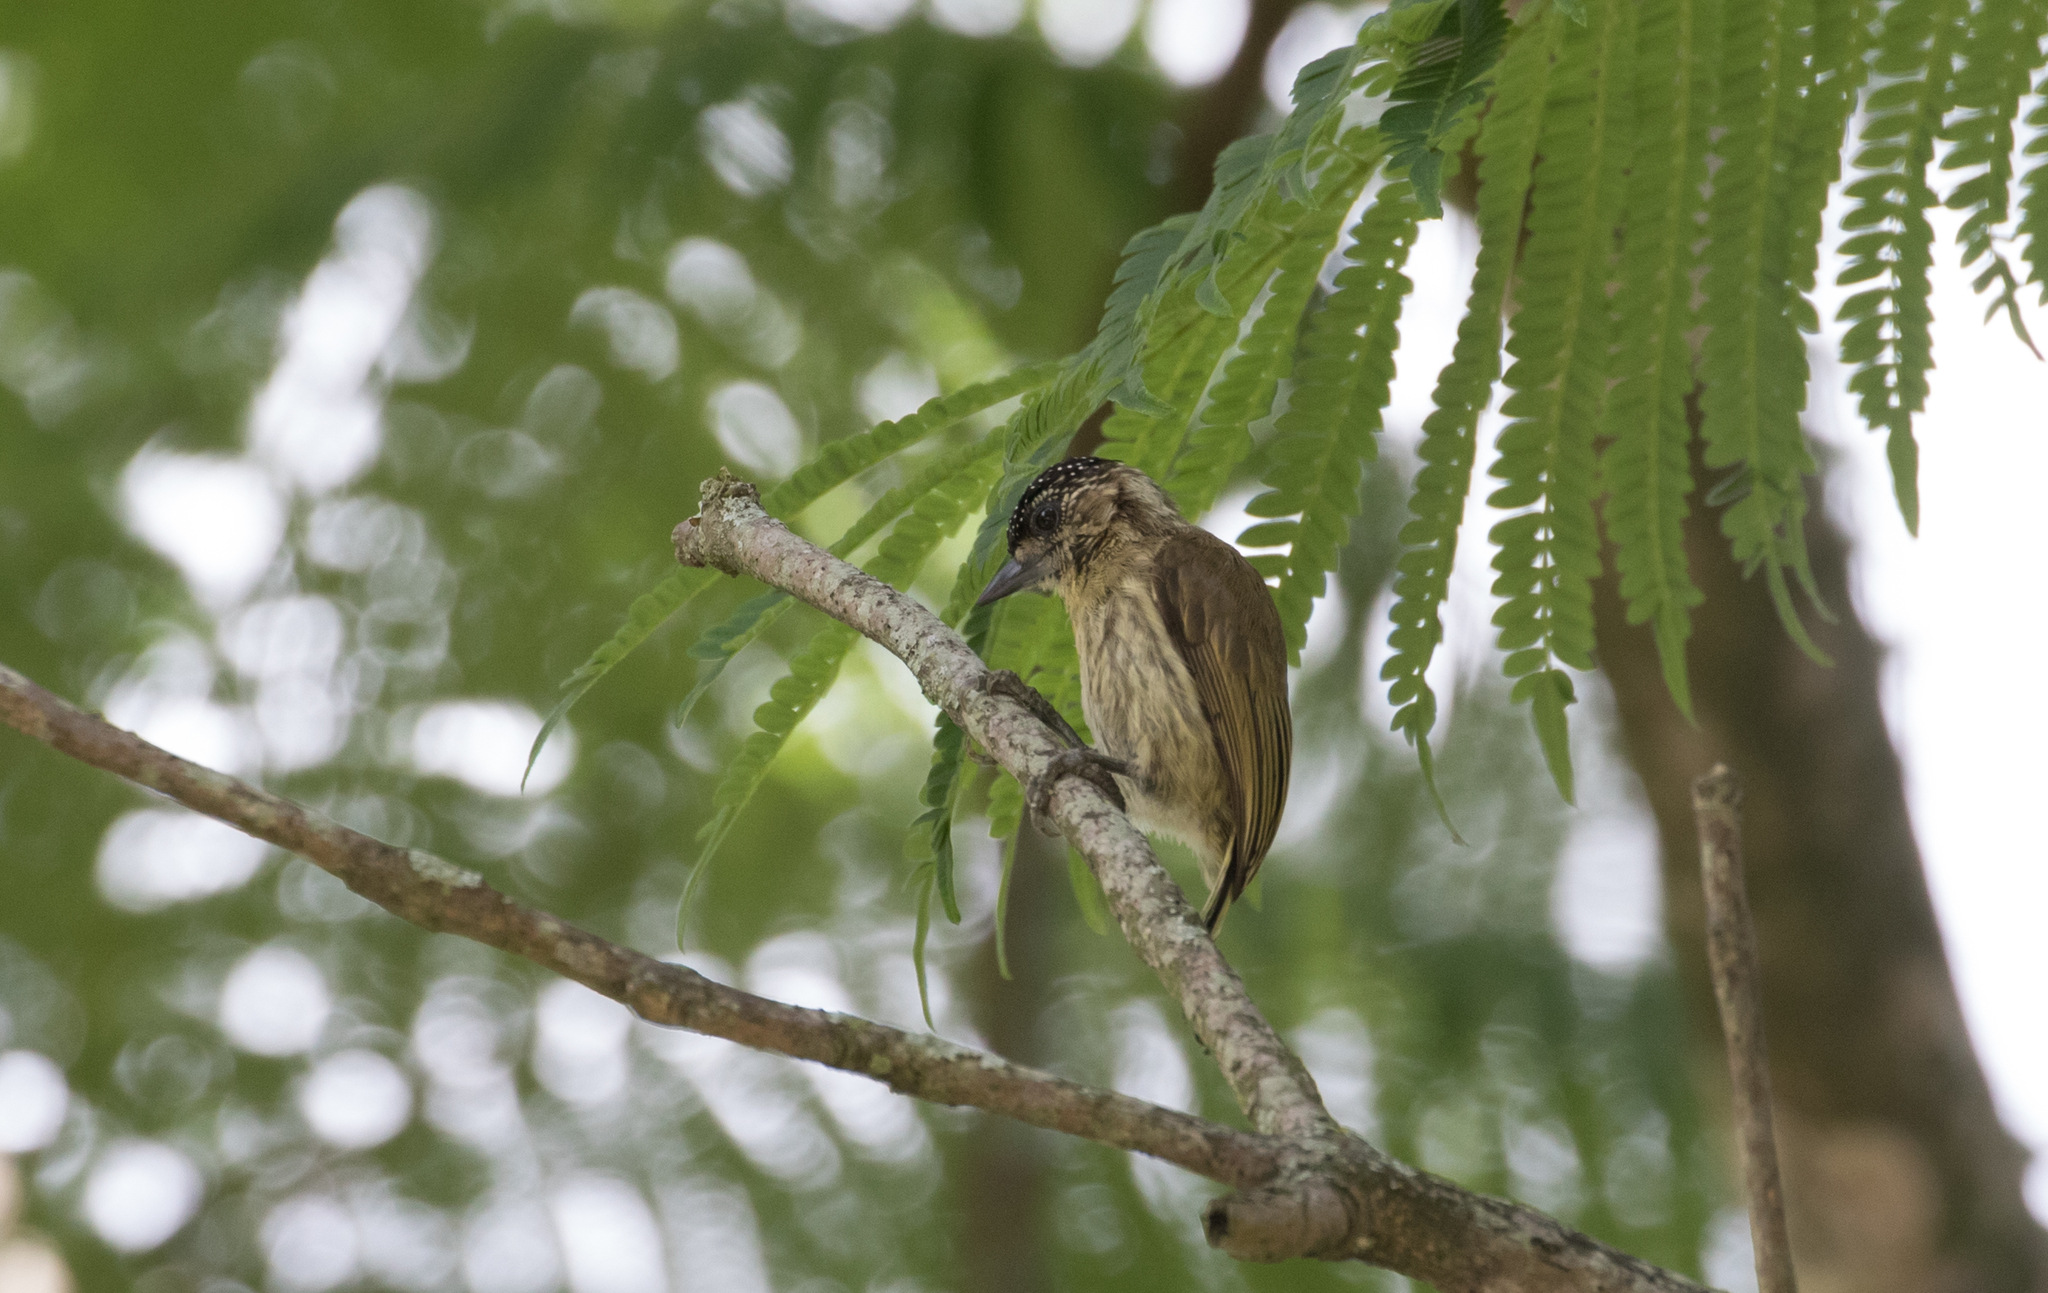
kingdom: Animalia
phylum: Chordata
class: Aves
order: Piciformes
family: Picidae
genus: Picumnus
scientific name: Picumnus olivaceus
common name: Olivaceous piculet
